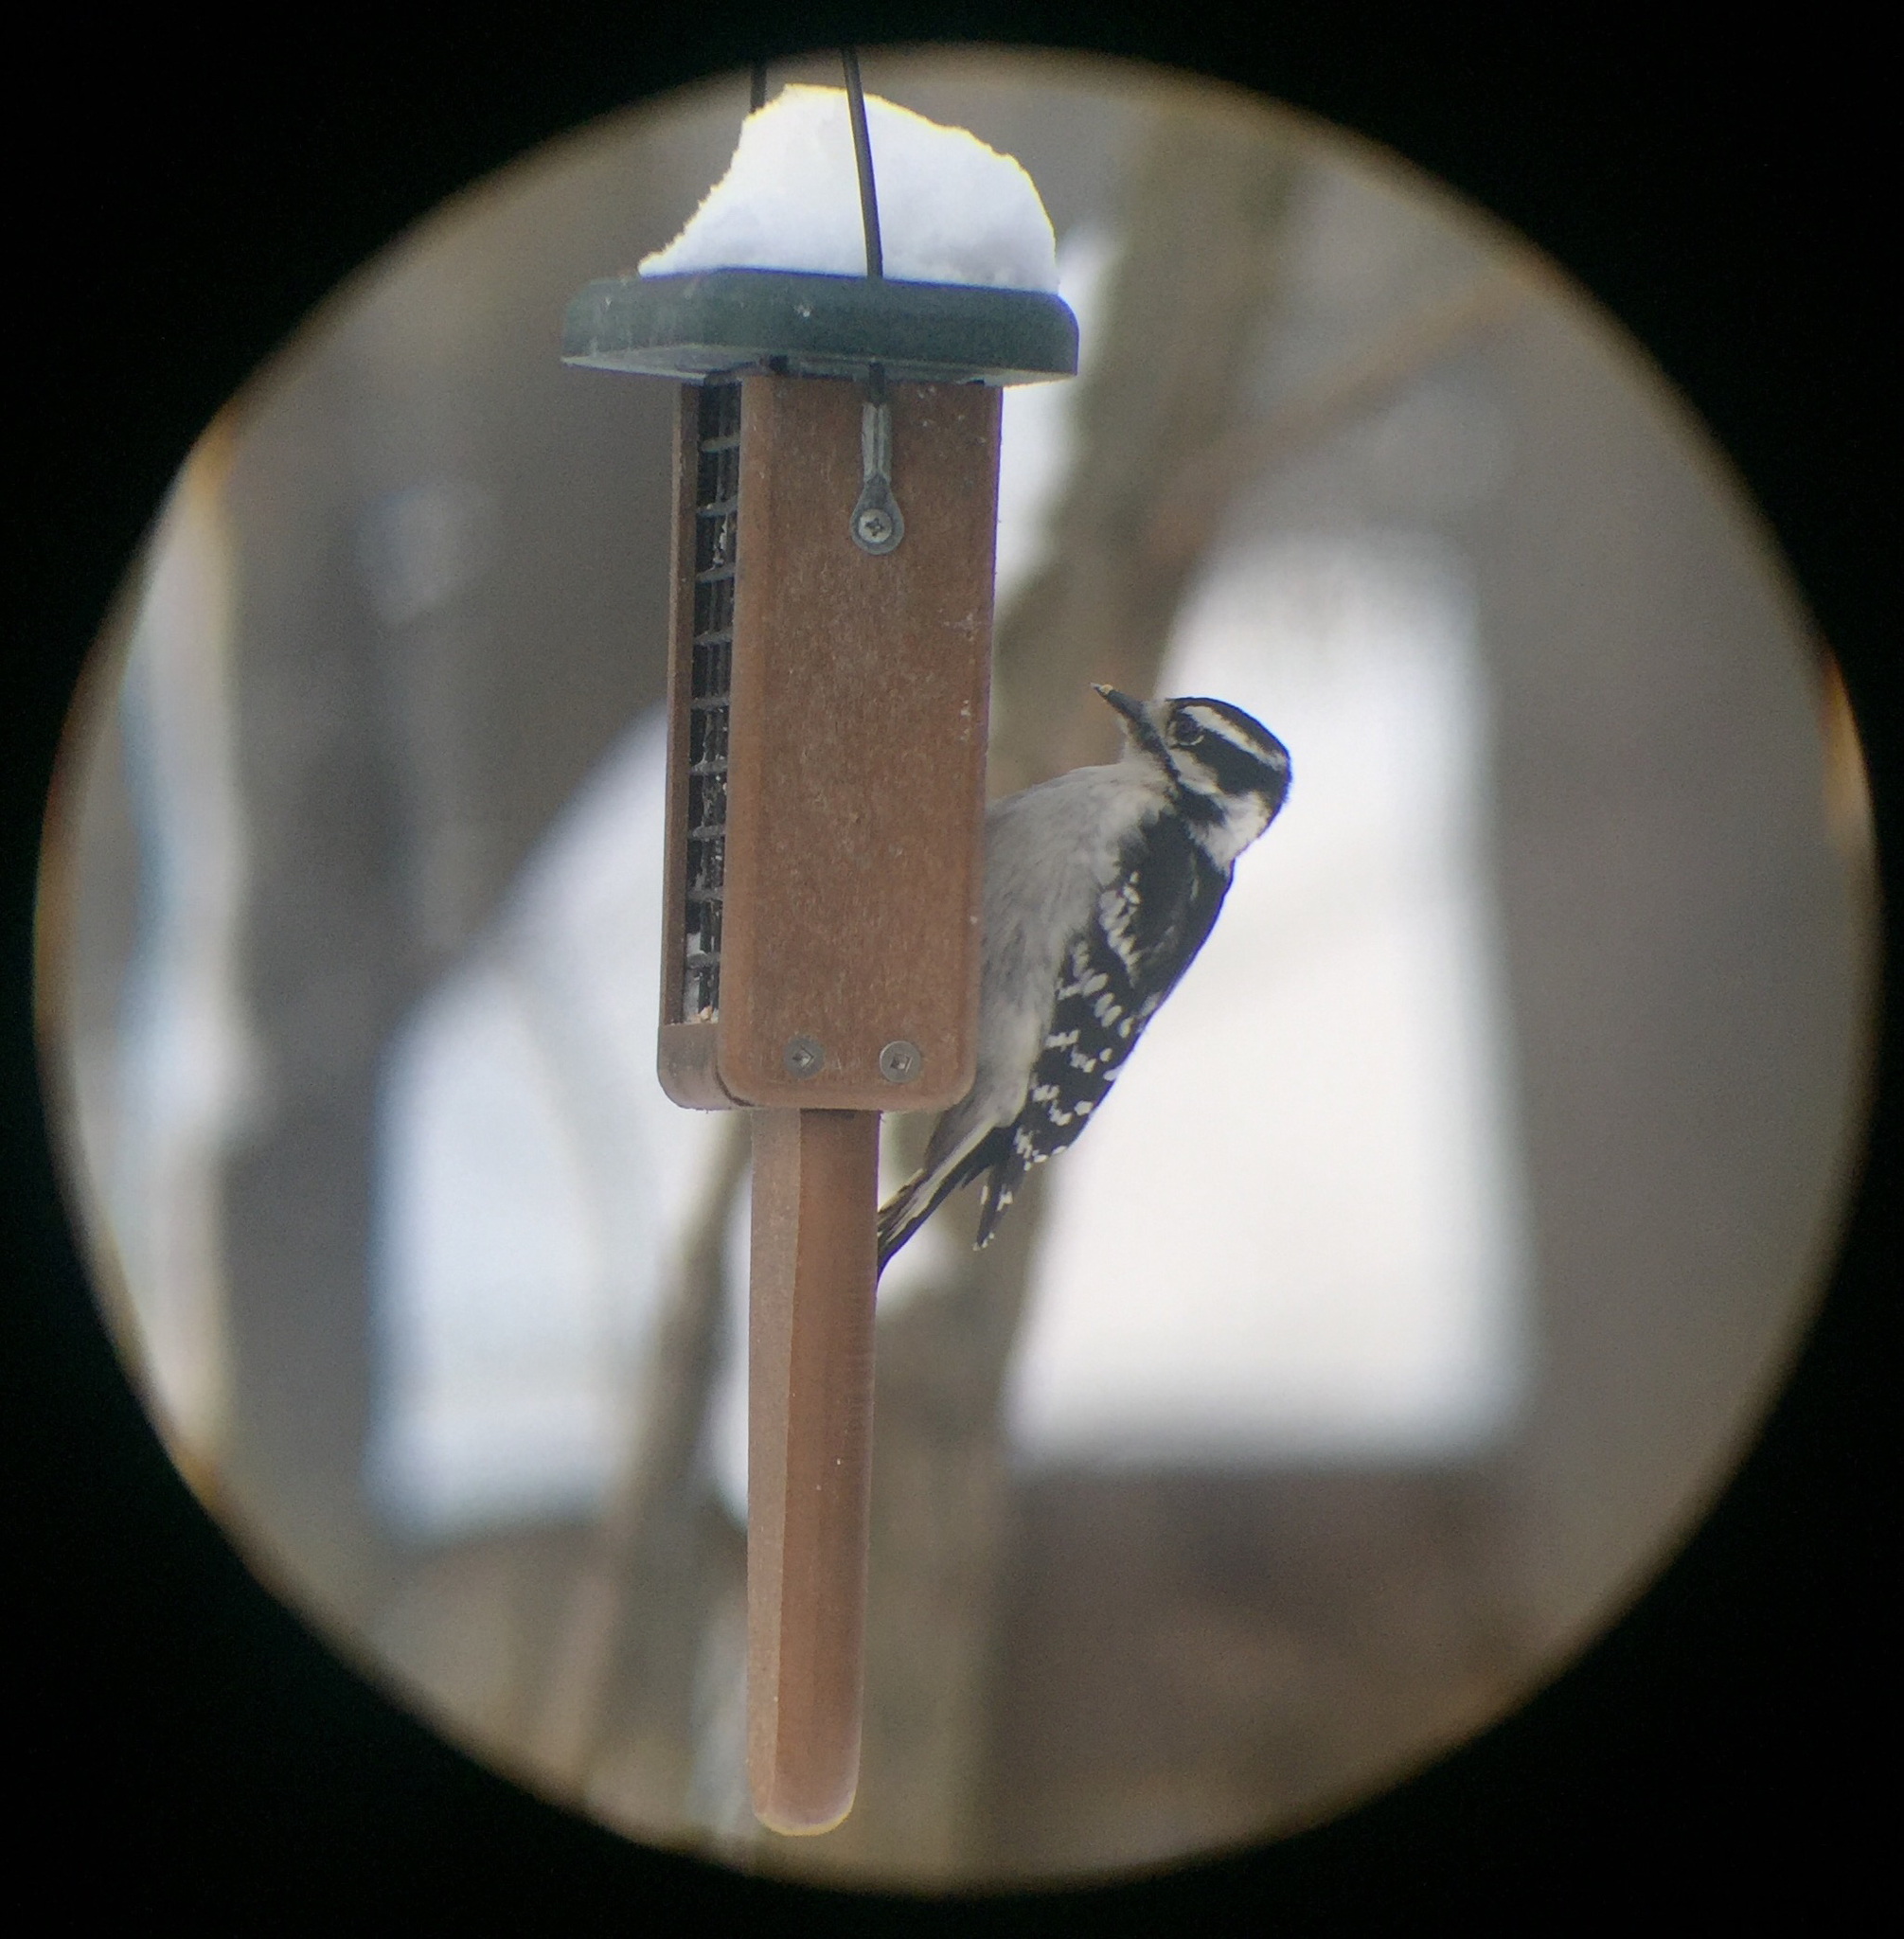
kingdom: Animalia
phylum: Chordata
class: Aves
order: Piciformes
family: Picidae
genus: Dryobates
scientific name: Dryobates pubescens
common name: Downy woodpecker
